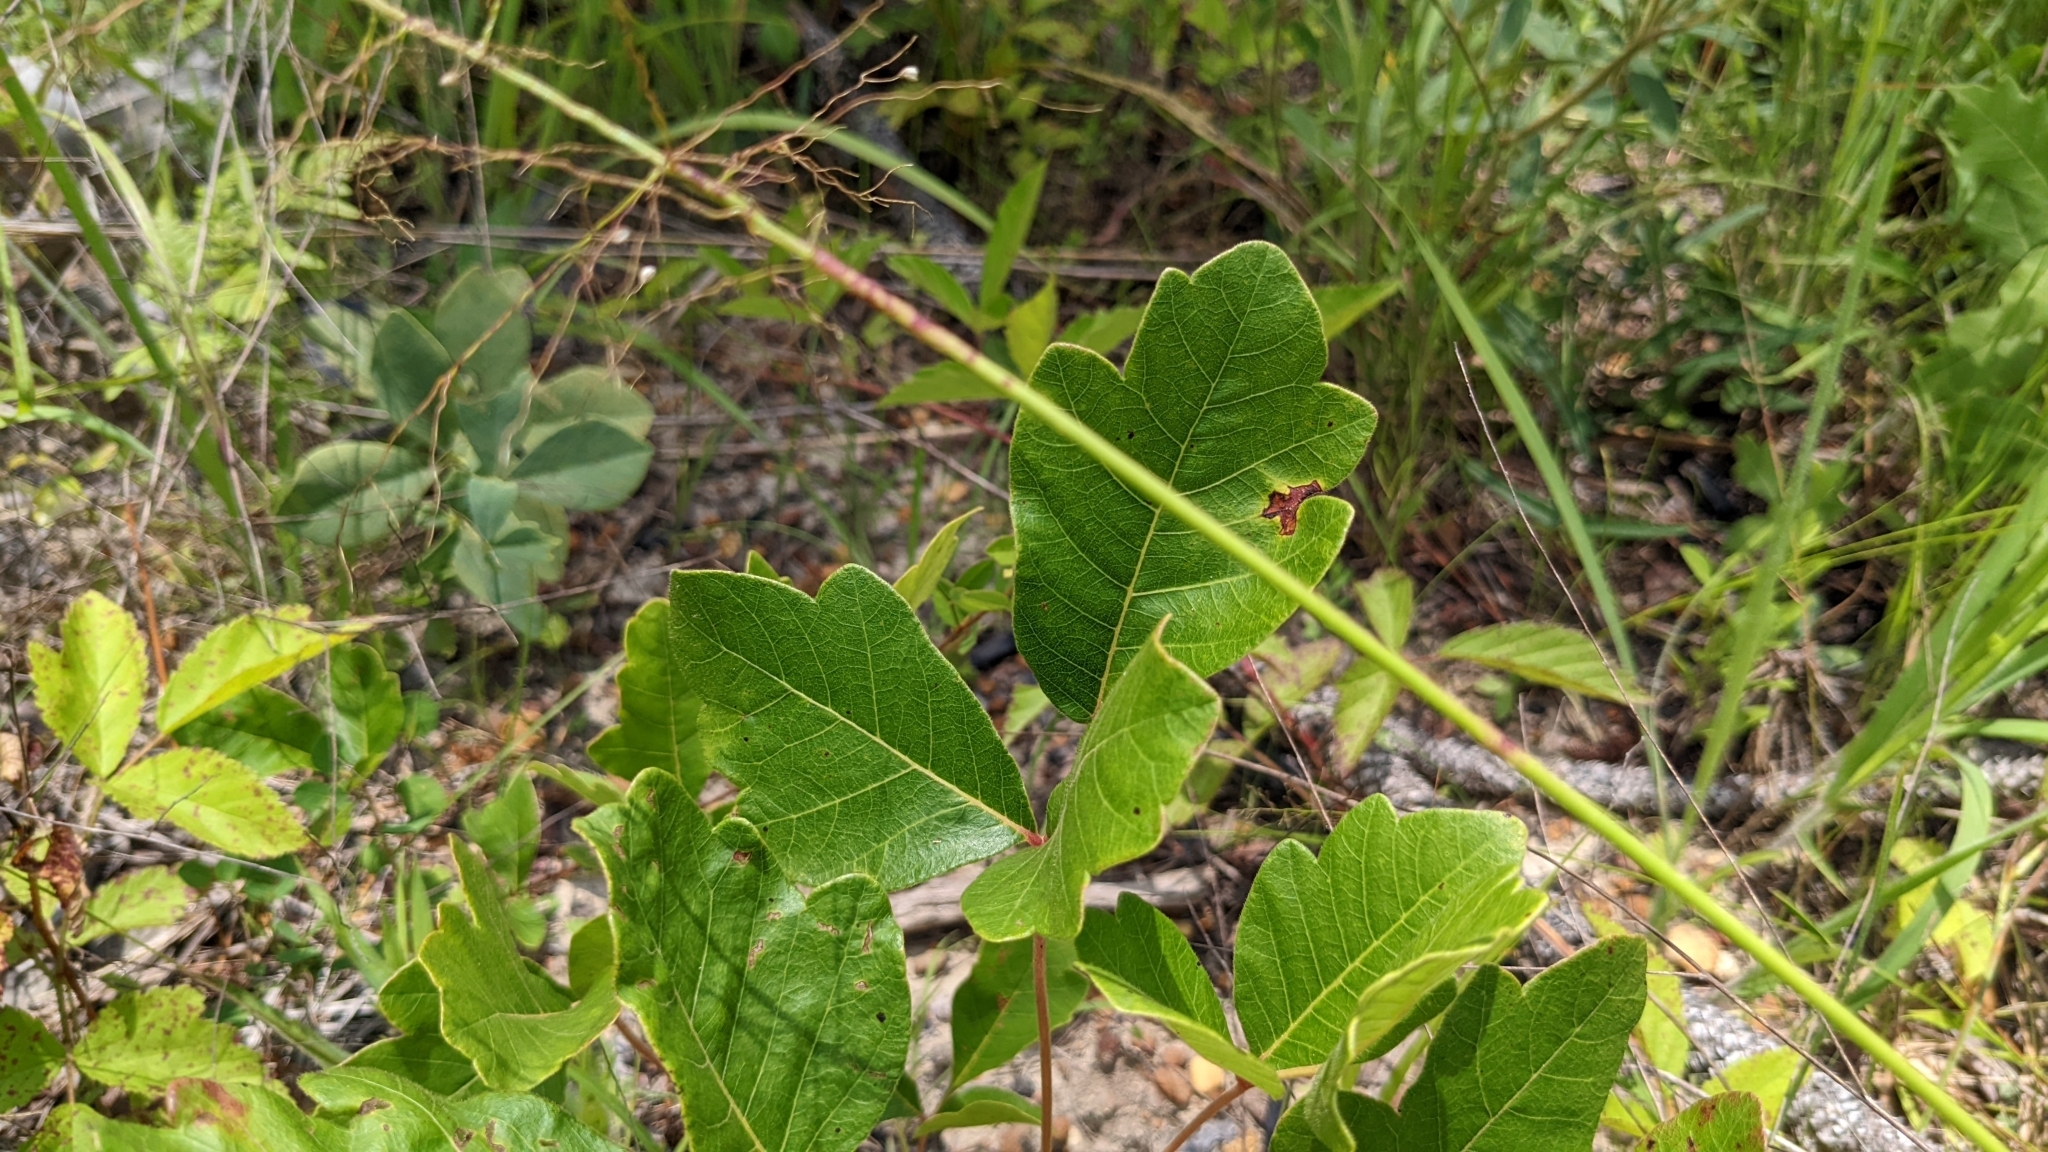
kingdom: Plantae
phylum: Tracheophyta
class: Magnoliopsida
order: Sapindales
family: Anacardiaceae
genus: Toxicodendron
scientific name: Toxicodendron pubescens
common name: Eastern poison-oak
